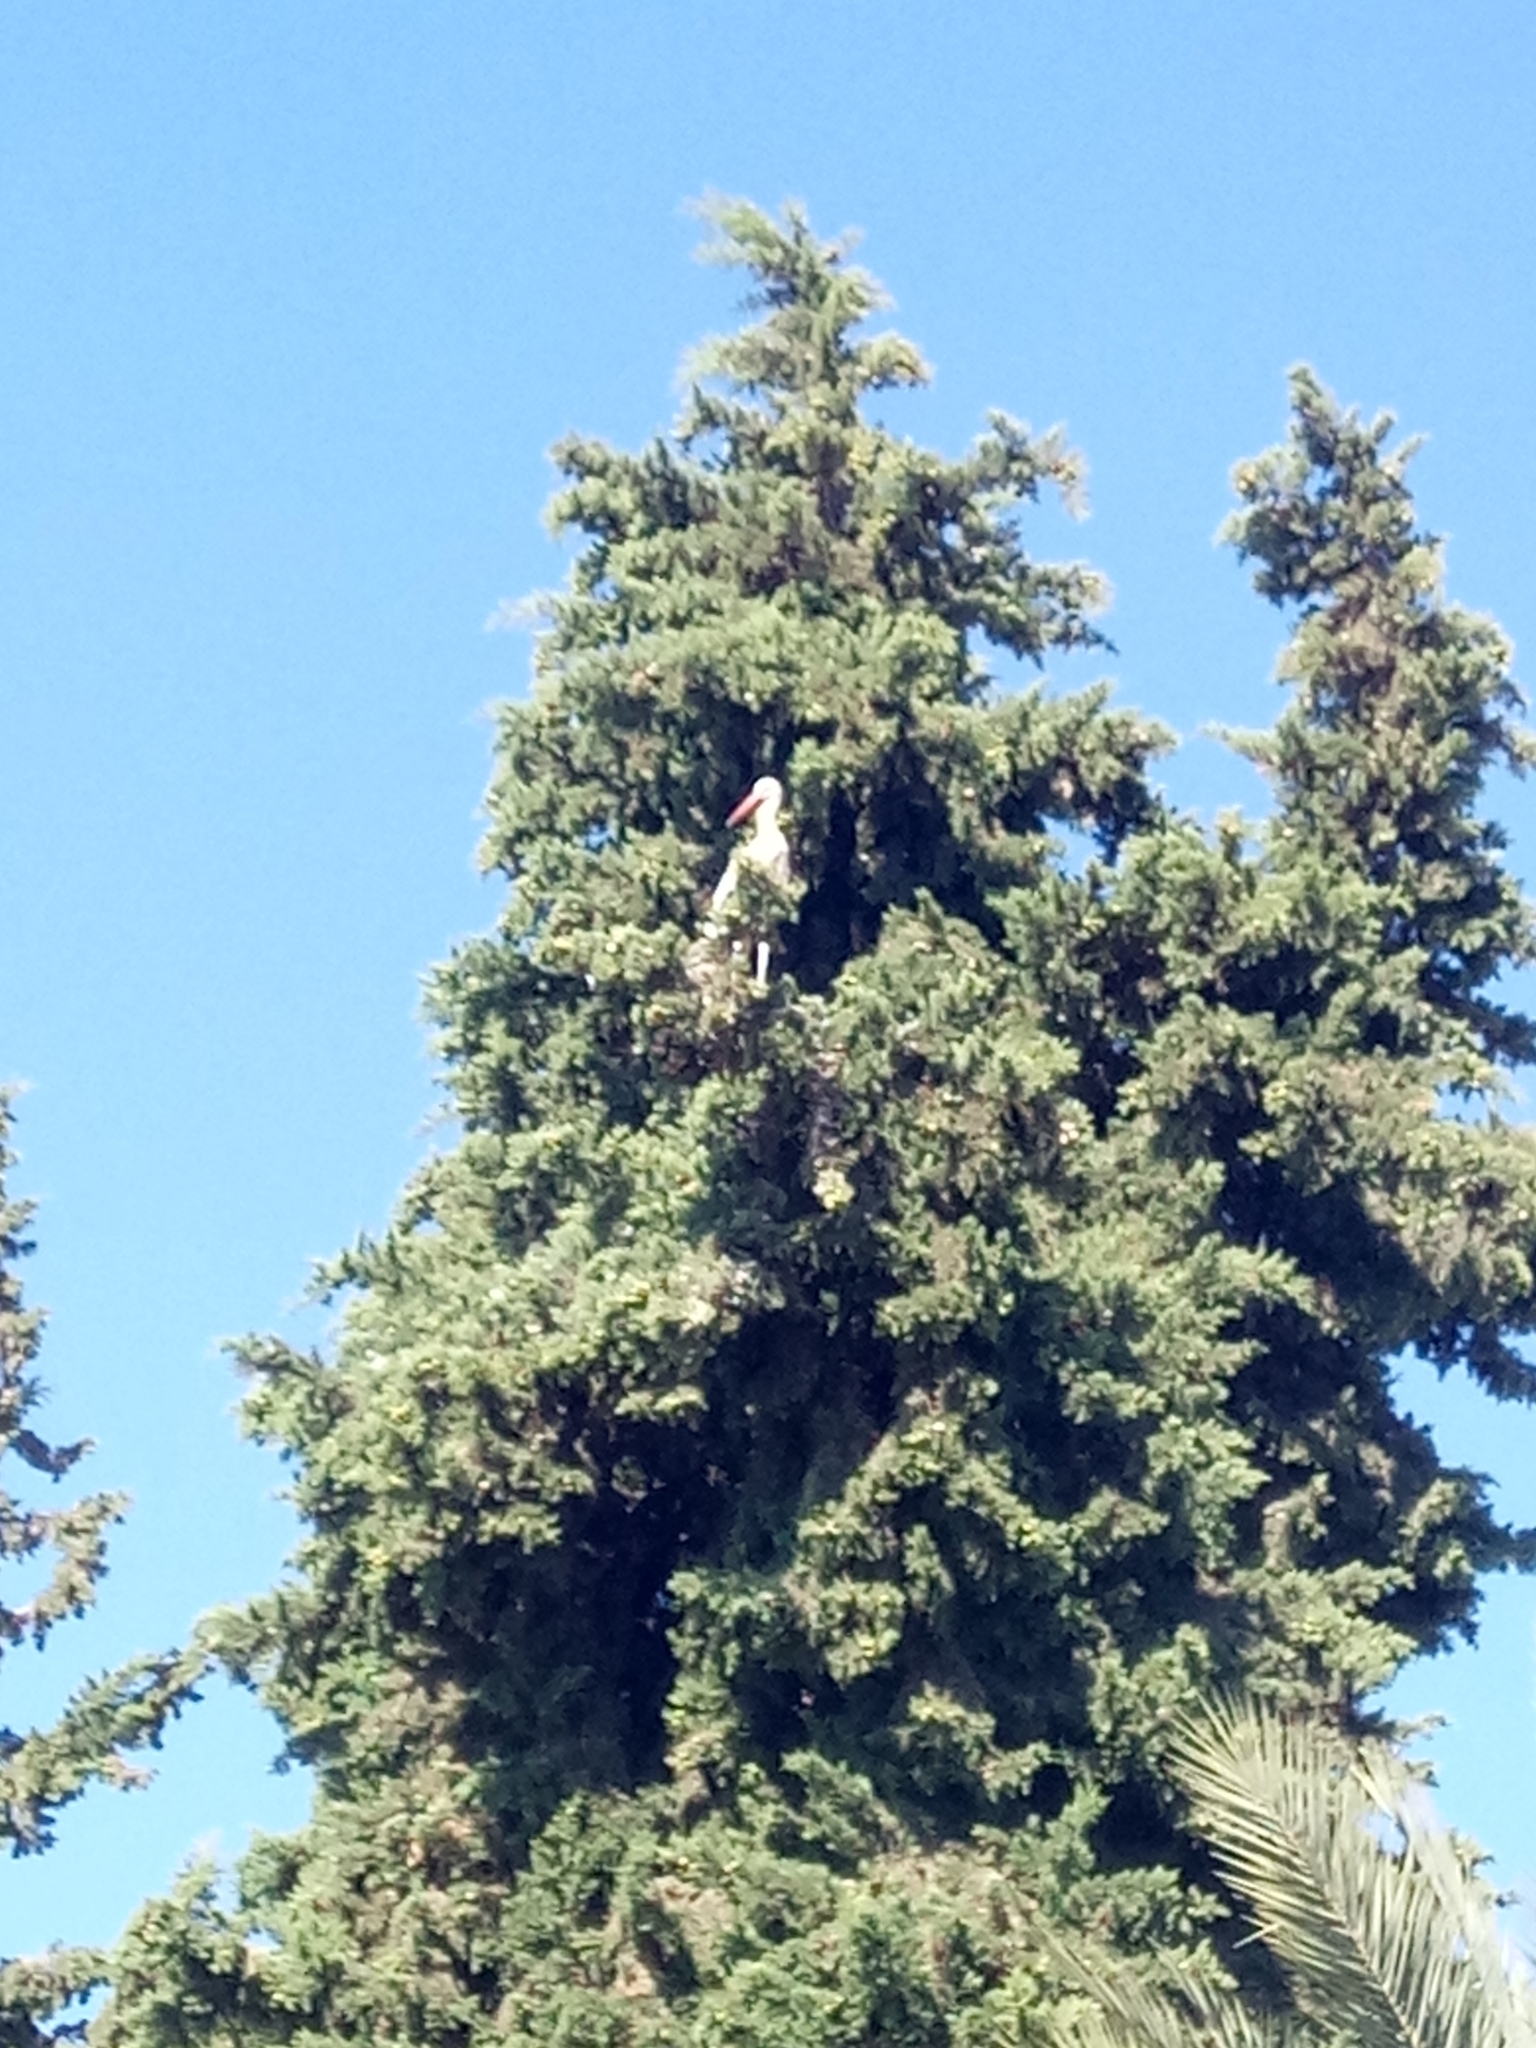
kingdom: Animalia
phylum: Chordata
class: Aves
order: Ciconiiformes
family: Ciconiidae
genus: Ciconia
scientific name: Ciconia ciconia
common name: White stork
